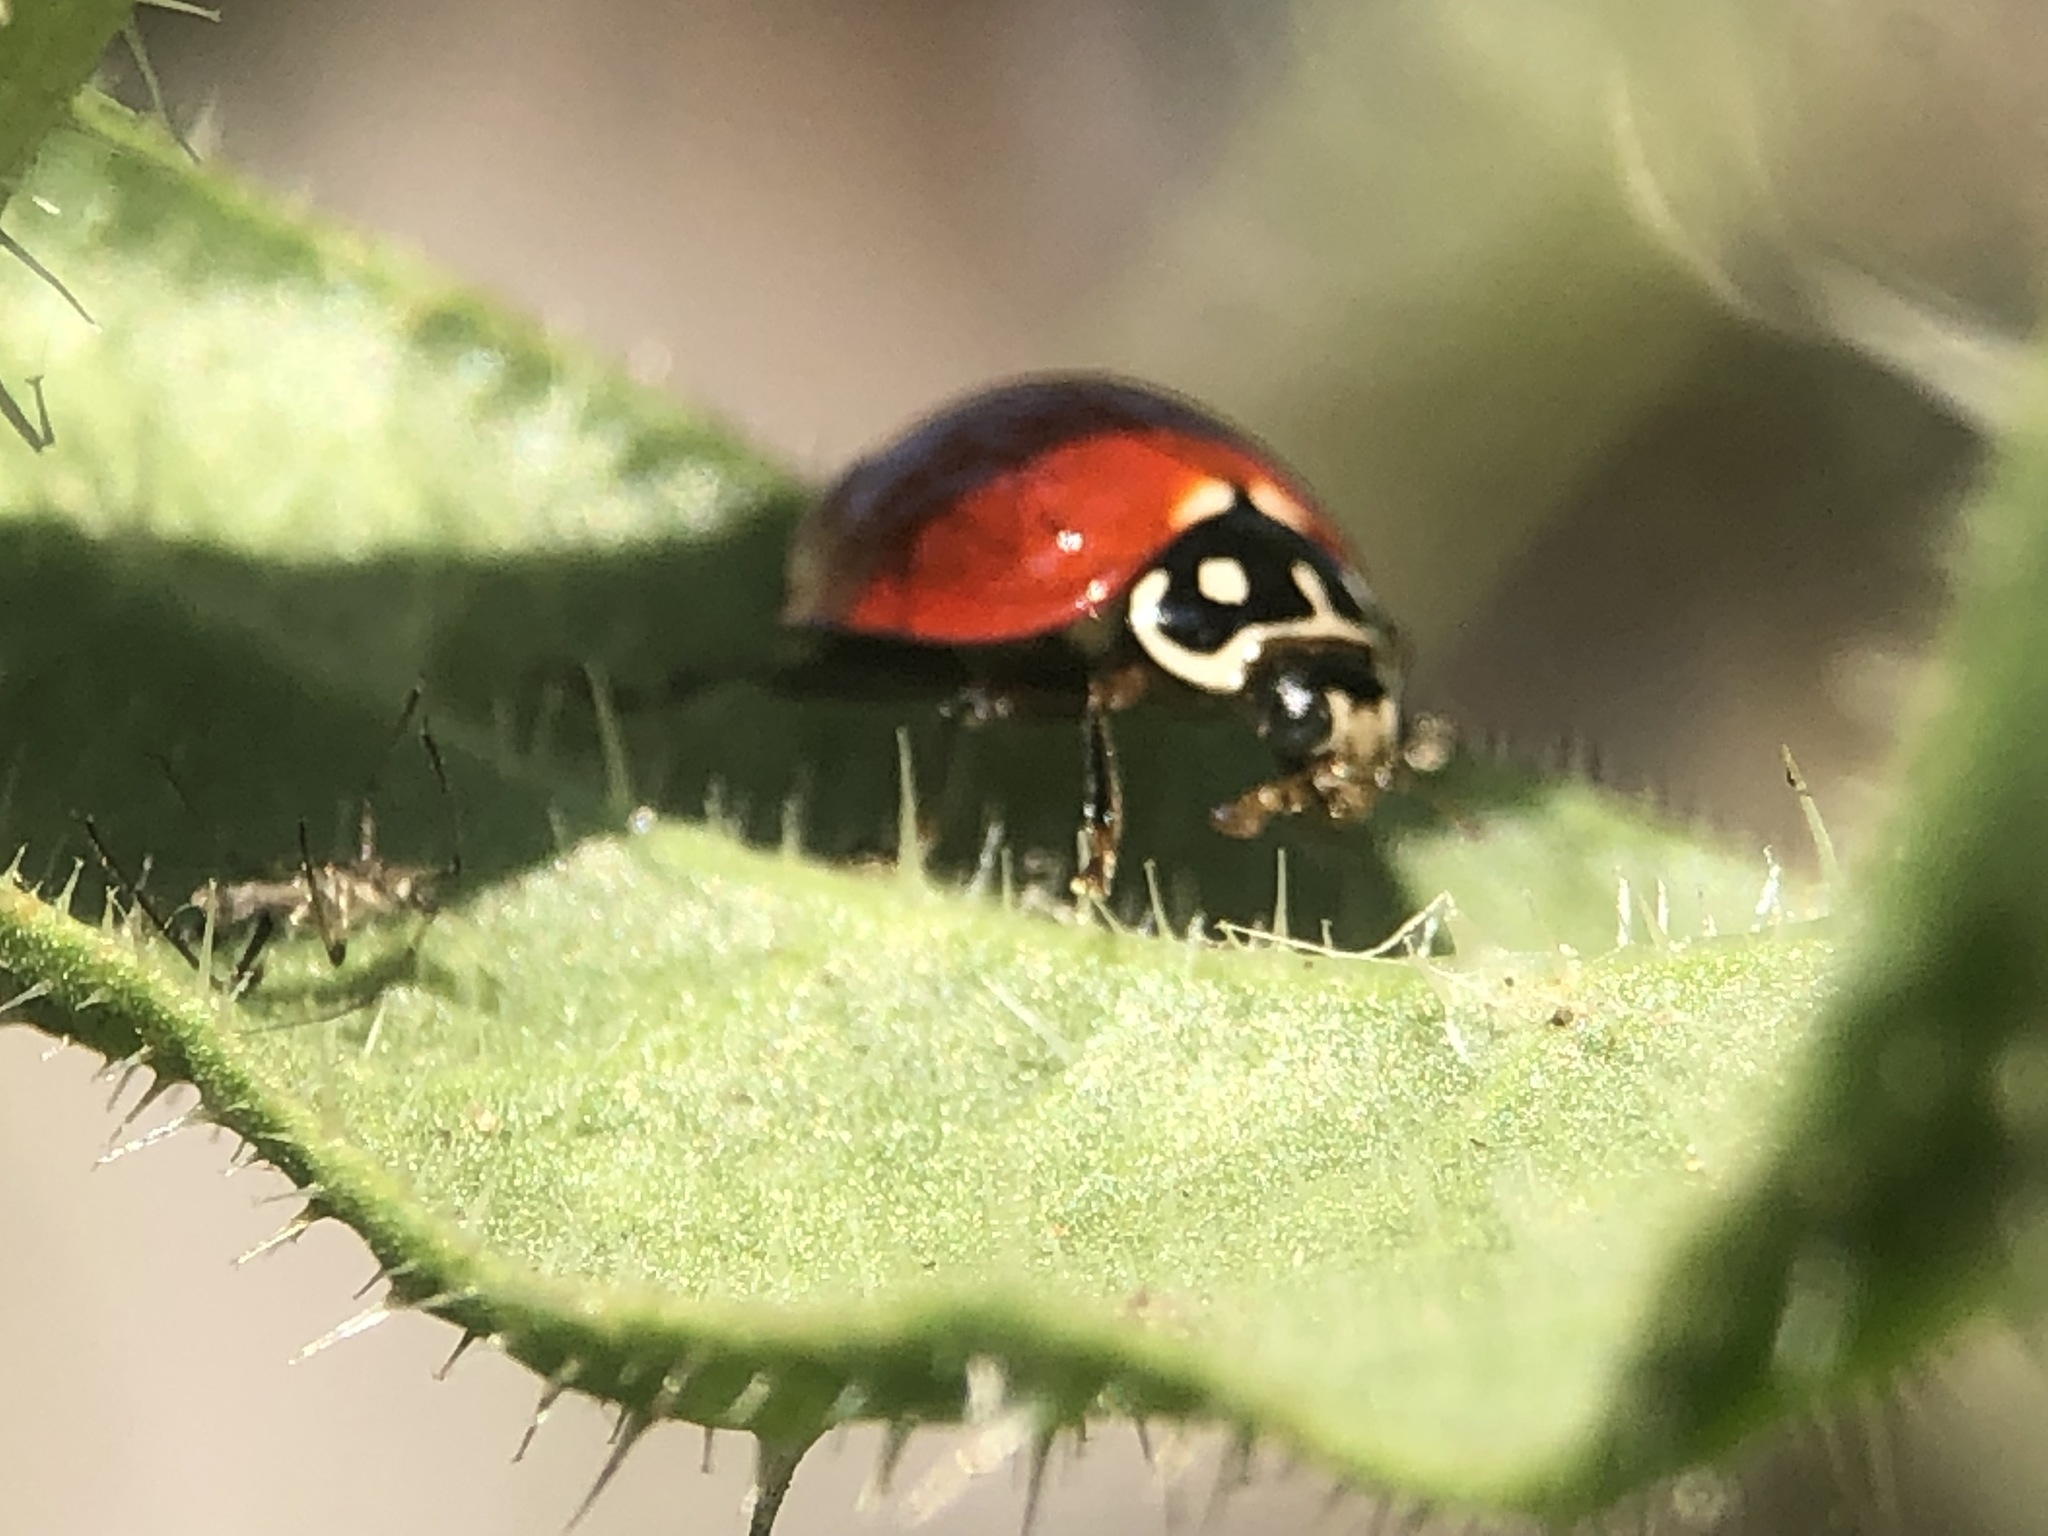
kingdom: Animalia
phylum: Arthropoda
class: Insecta
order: Coleoptera
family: Coccinellidae
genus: Cycloneda
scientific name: Cycloneda sanguinea
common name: Ladybird beetle
